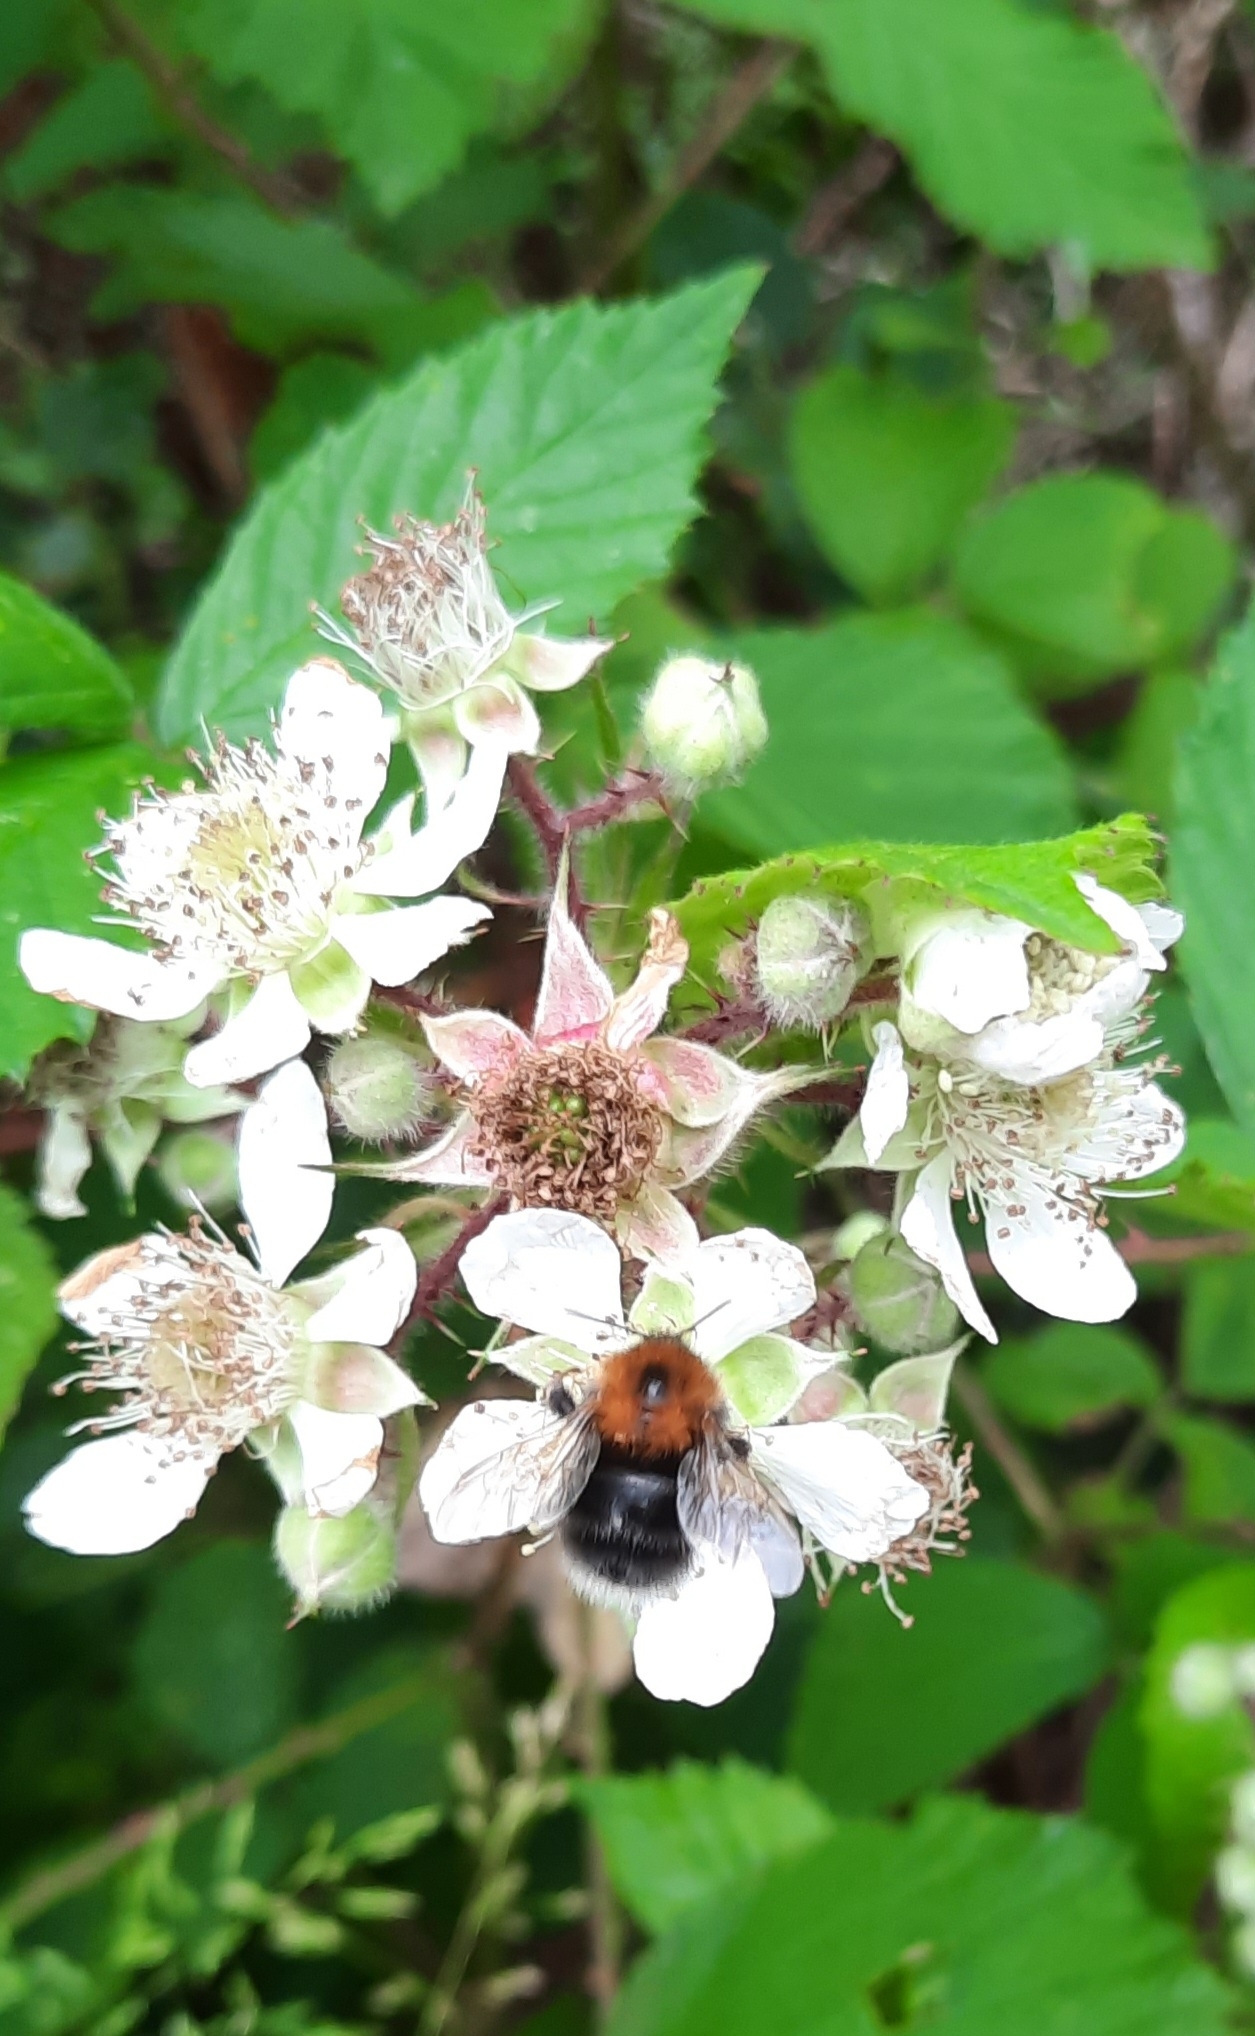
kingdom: Animalia
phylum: Arthropoda
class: Insecta
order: Hymenoptera
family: Apidae
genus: Bombus
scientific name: Bombus hypnorum
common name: New garden bumblebee
